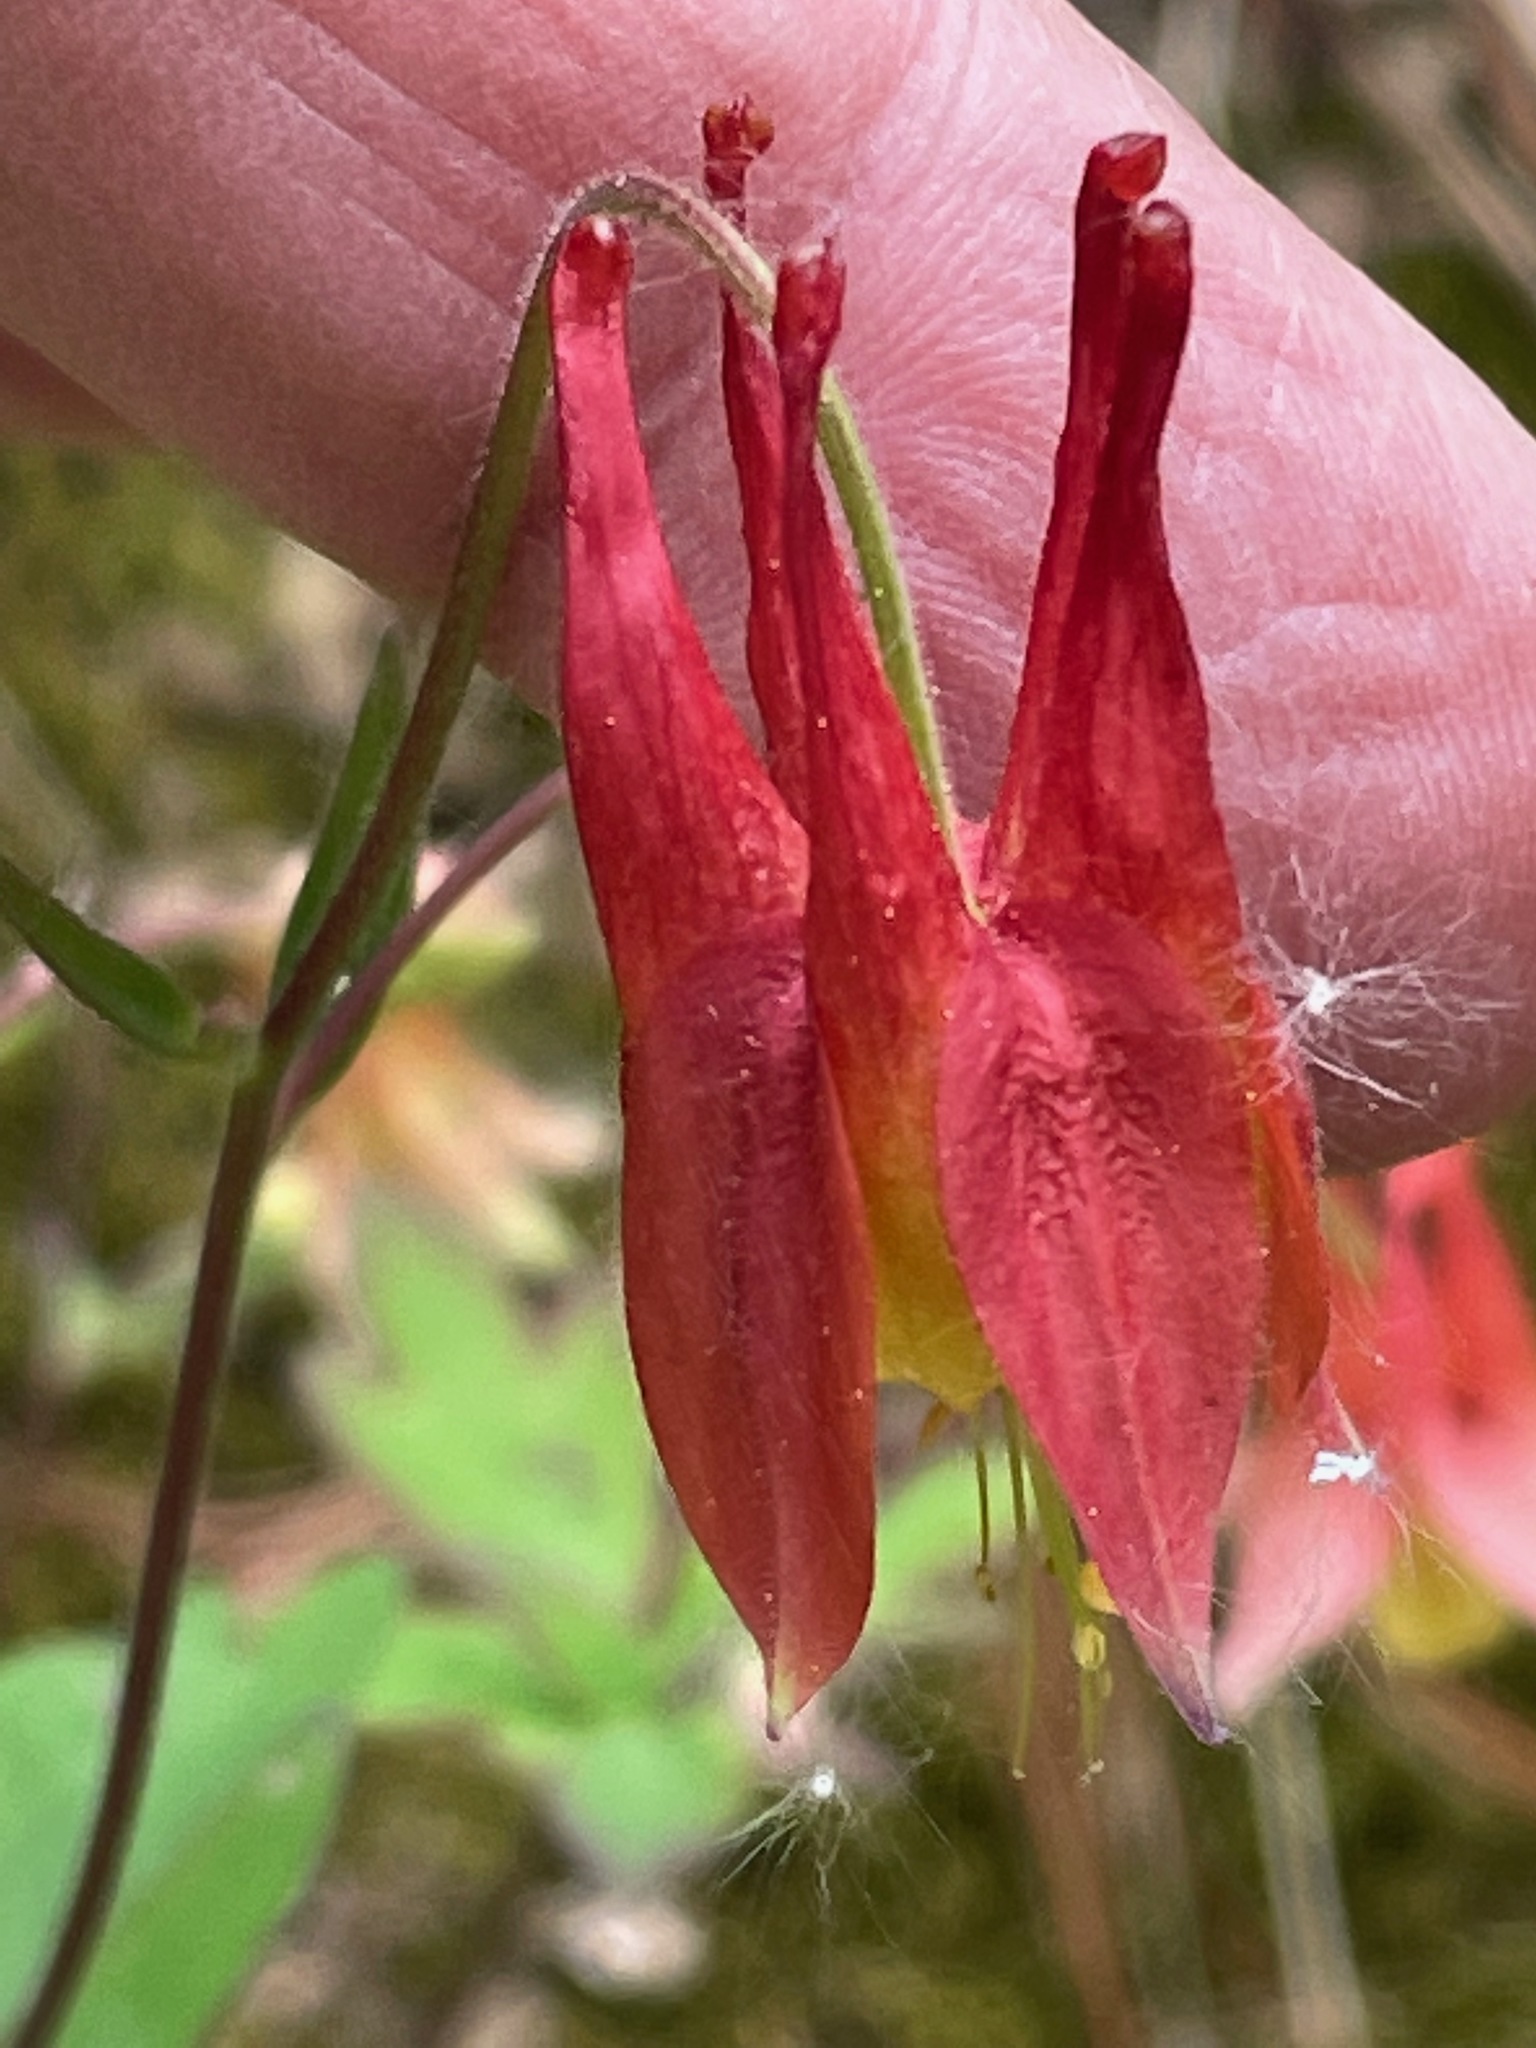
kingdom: Plantae
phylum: Tracheophyta
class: Magnoliopsida
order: Ranunculales
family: Ranunculaceae
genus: Aquilegia
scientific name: Aquilegia canadensis
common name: American columbine
